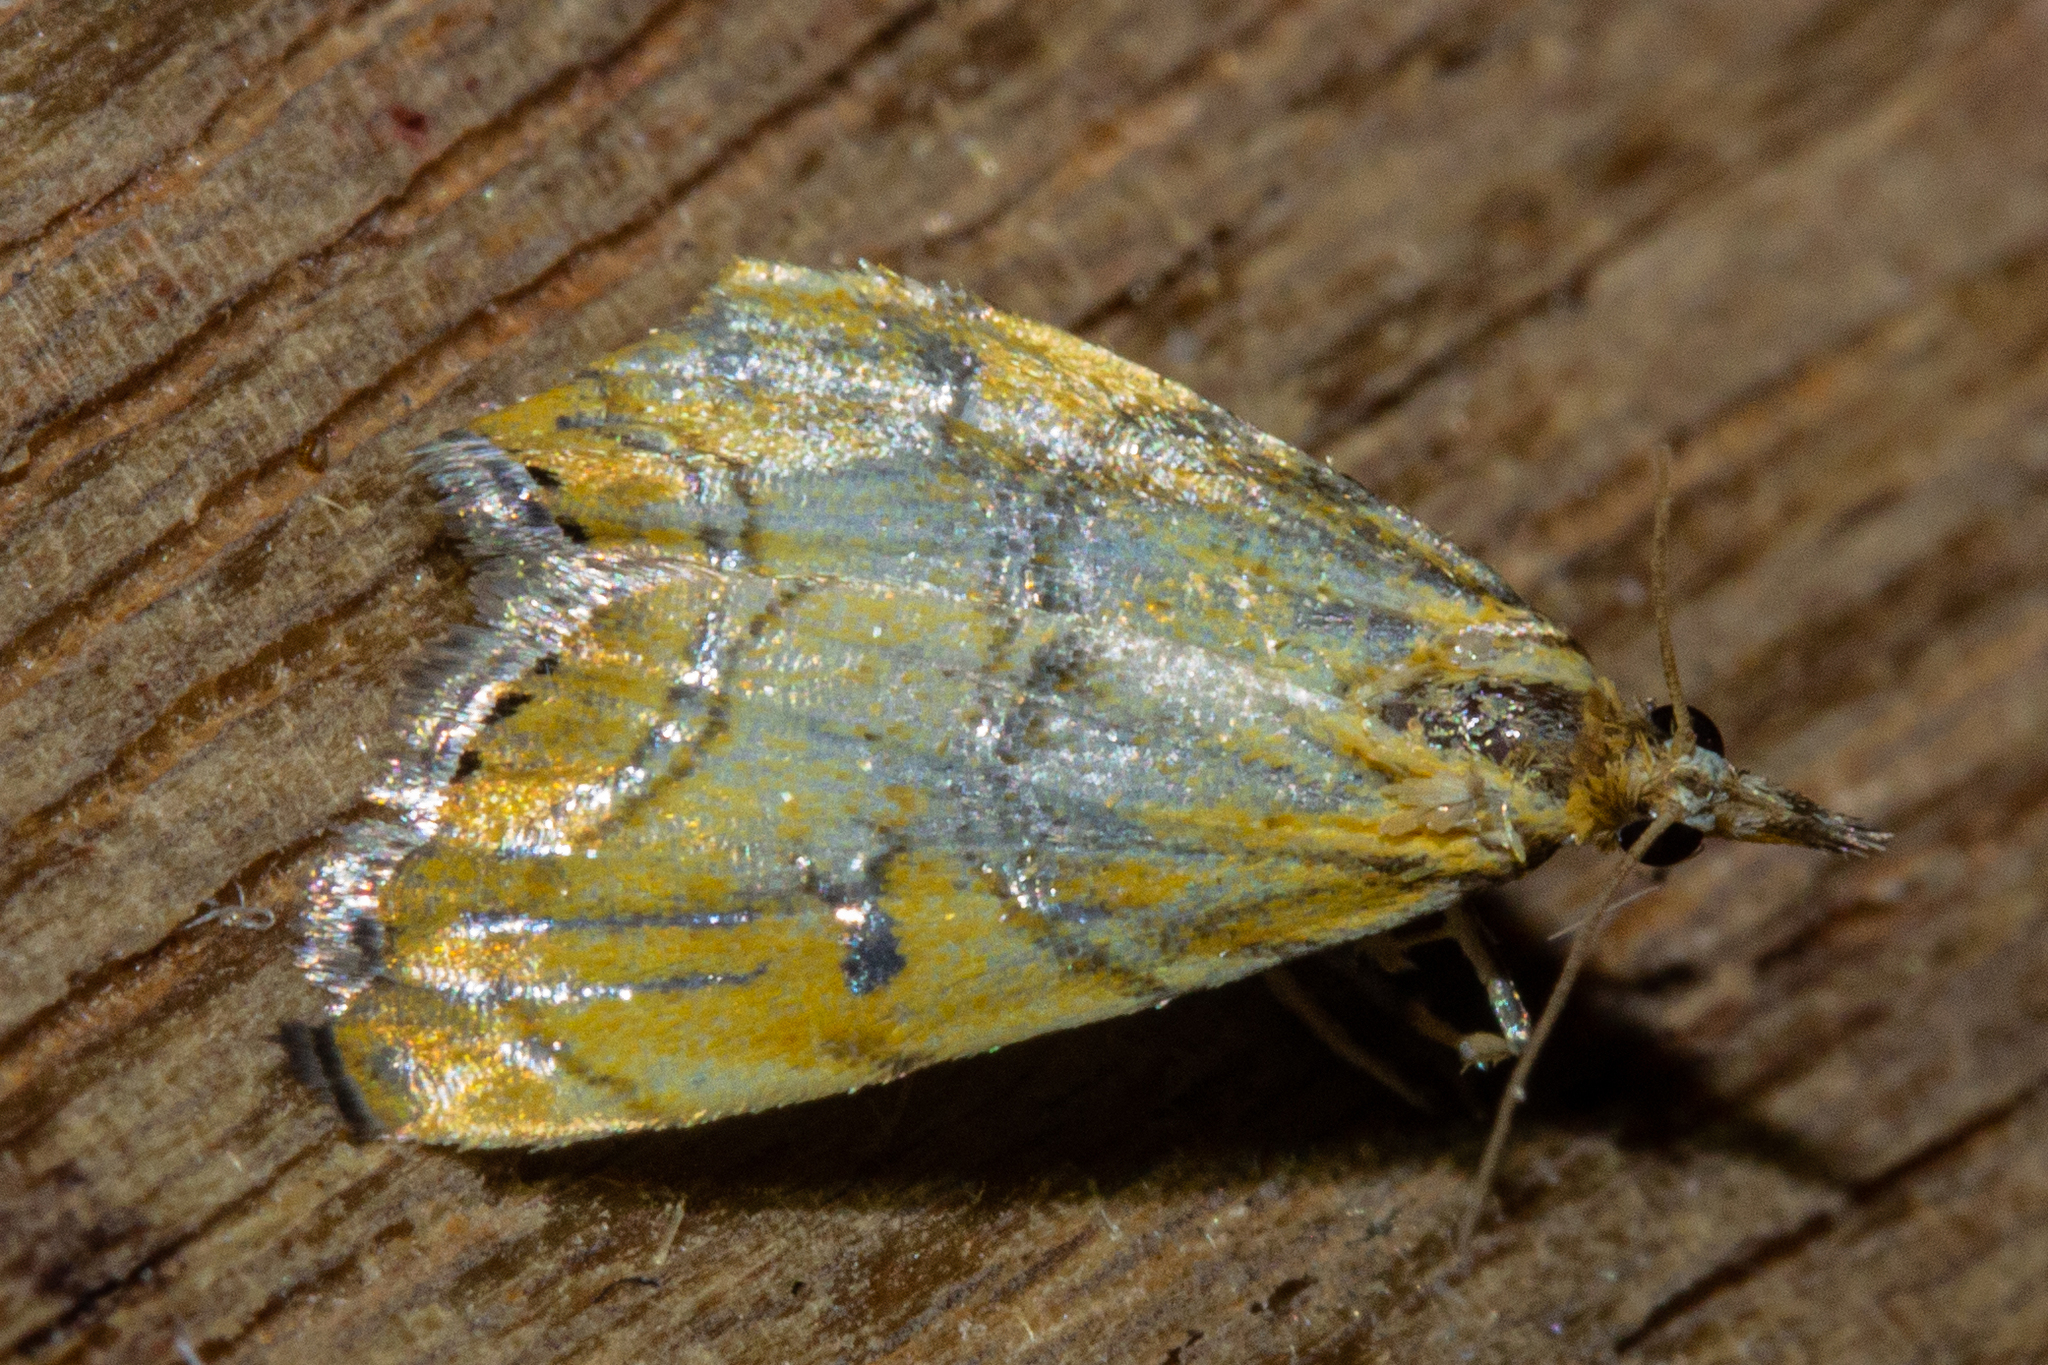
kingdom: Animalia
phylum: Arthropoda
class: Insecta
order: Lepidoptera
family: Crambidae
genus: Glaucocharis
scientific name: Glaucocharis auriscriptella
